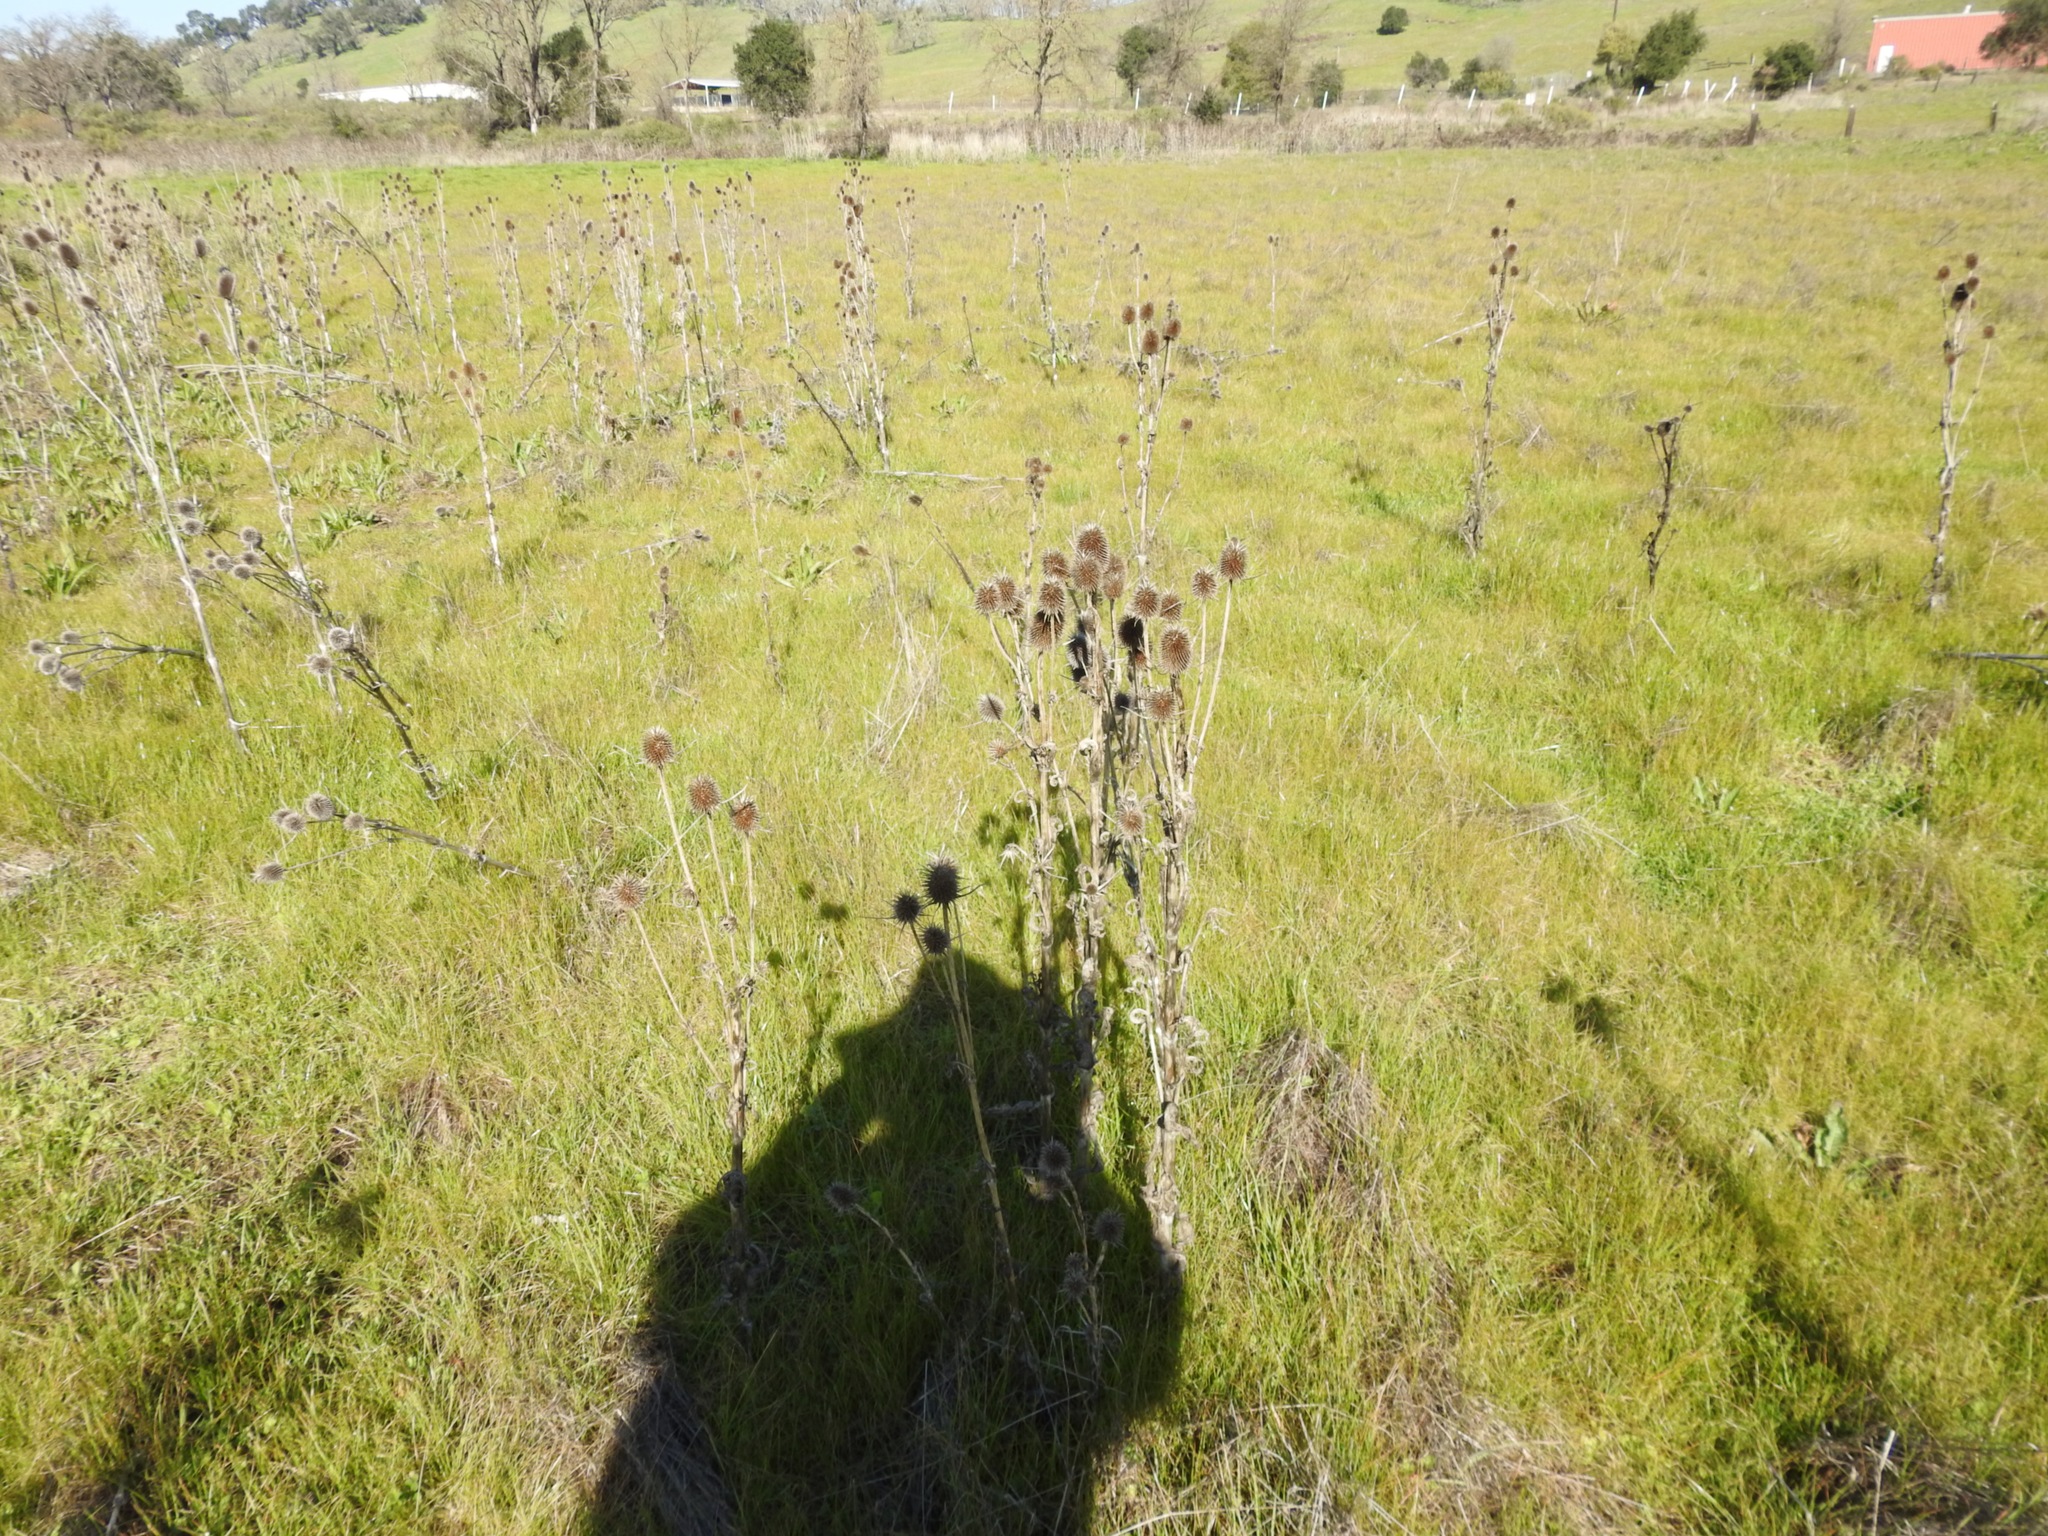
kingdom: Plantae
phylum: Tracheophyta
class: Magnoliopsida
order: Dipsacales
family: Caprifoliaceae
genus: Dipsacus
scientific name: Dipsacus sativus
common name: Fuller's teasel
